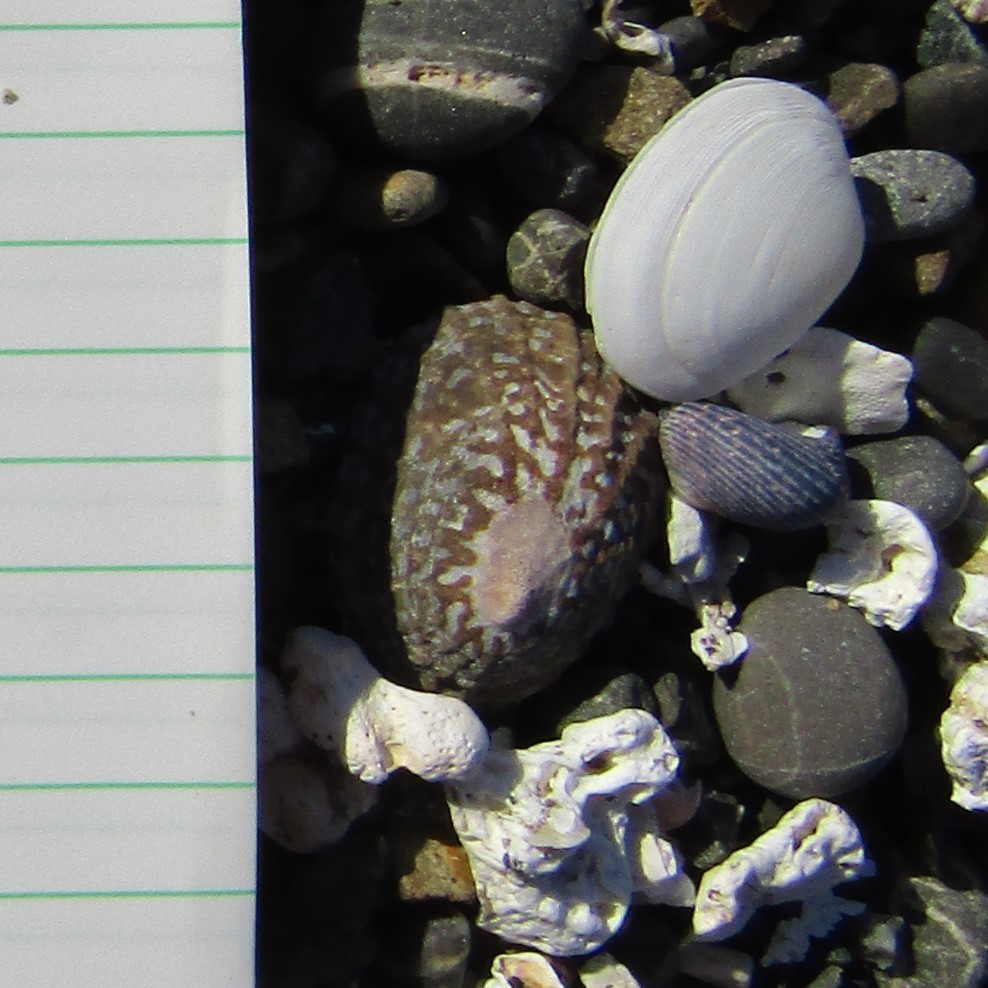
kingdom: Animalia
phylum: Mollusca
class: Gastropoda
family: Nacellidae
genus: Cellana
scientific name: Cellana denticulata
